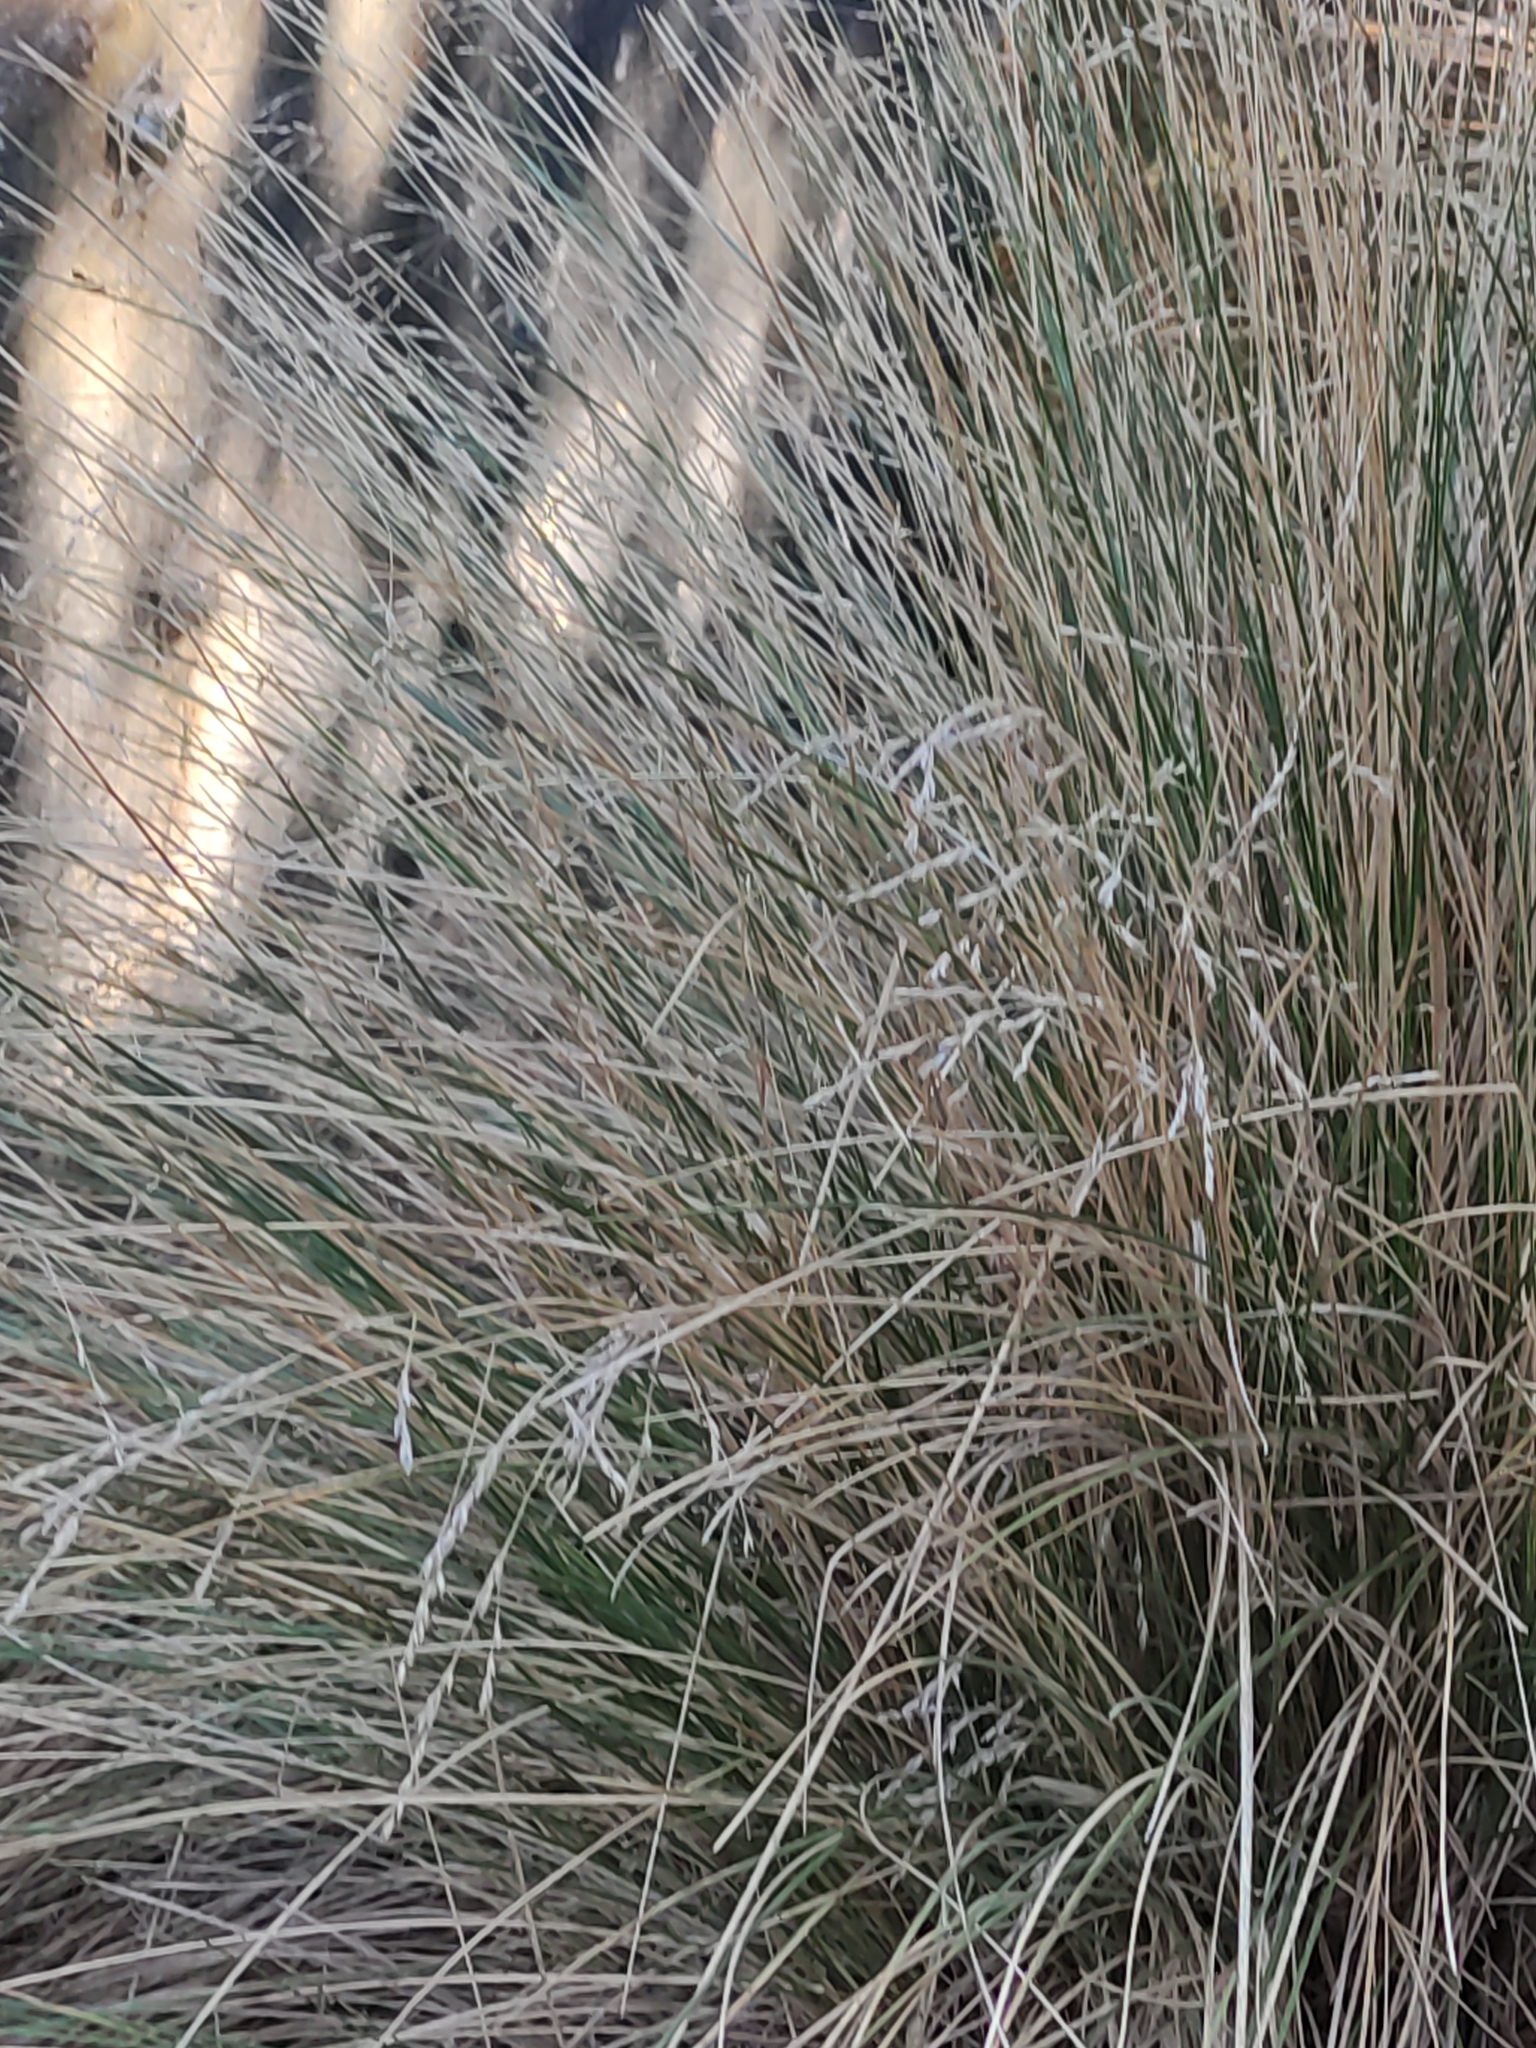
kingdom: Plantae
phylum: Tracheophyta
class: Liliopsida
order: Poales
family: Poaceae
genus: Poa
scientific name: Poa cita
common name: Silver tussock
